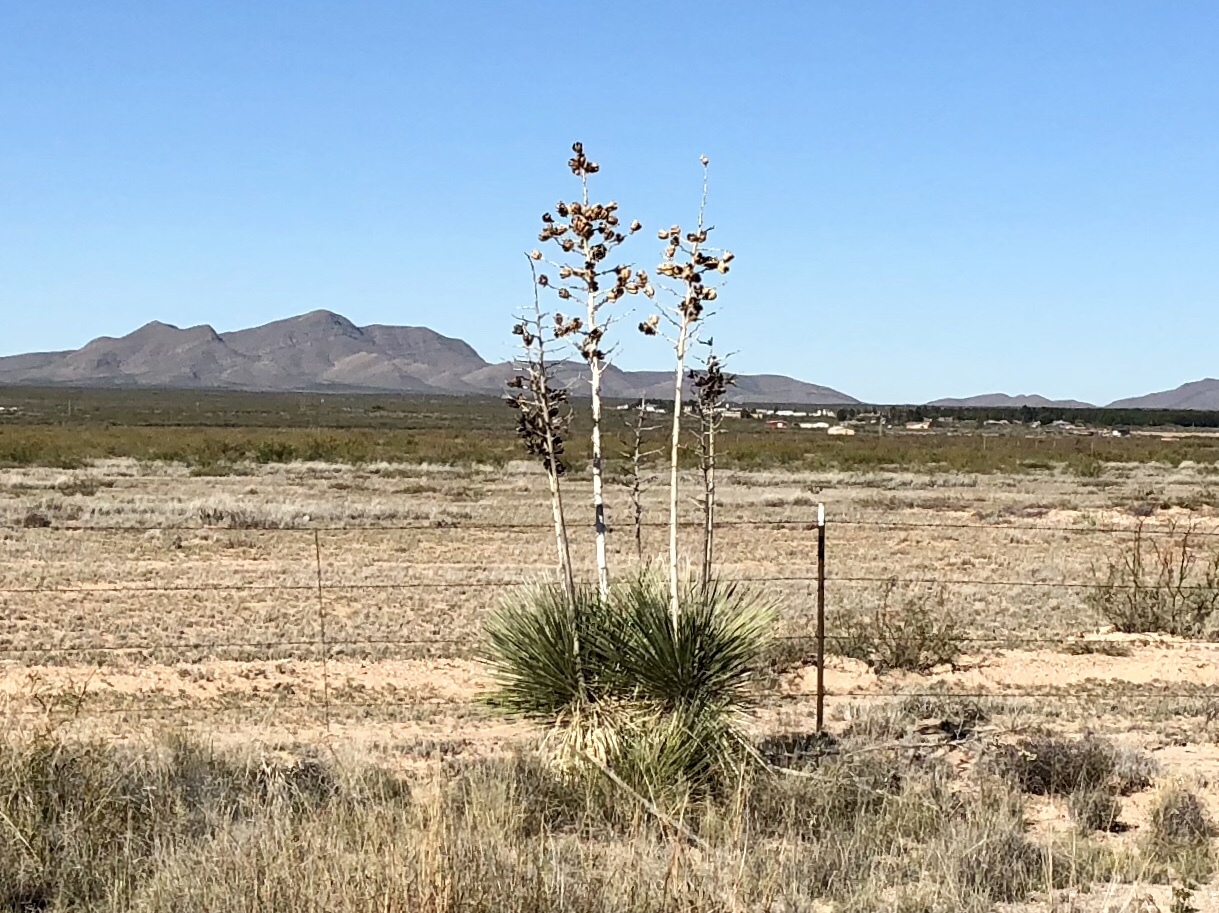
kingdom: Plantae
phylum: Tracheophyta
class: Liliopsida
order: Asparagales
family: Asparagaceae
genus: Yucca
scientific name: Yucca elata
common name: Palmella
